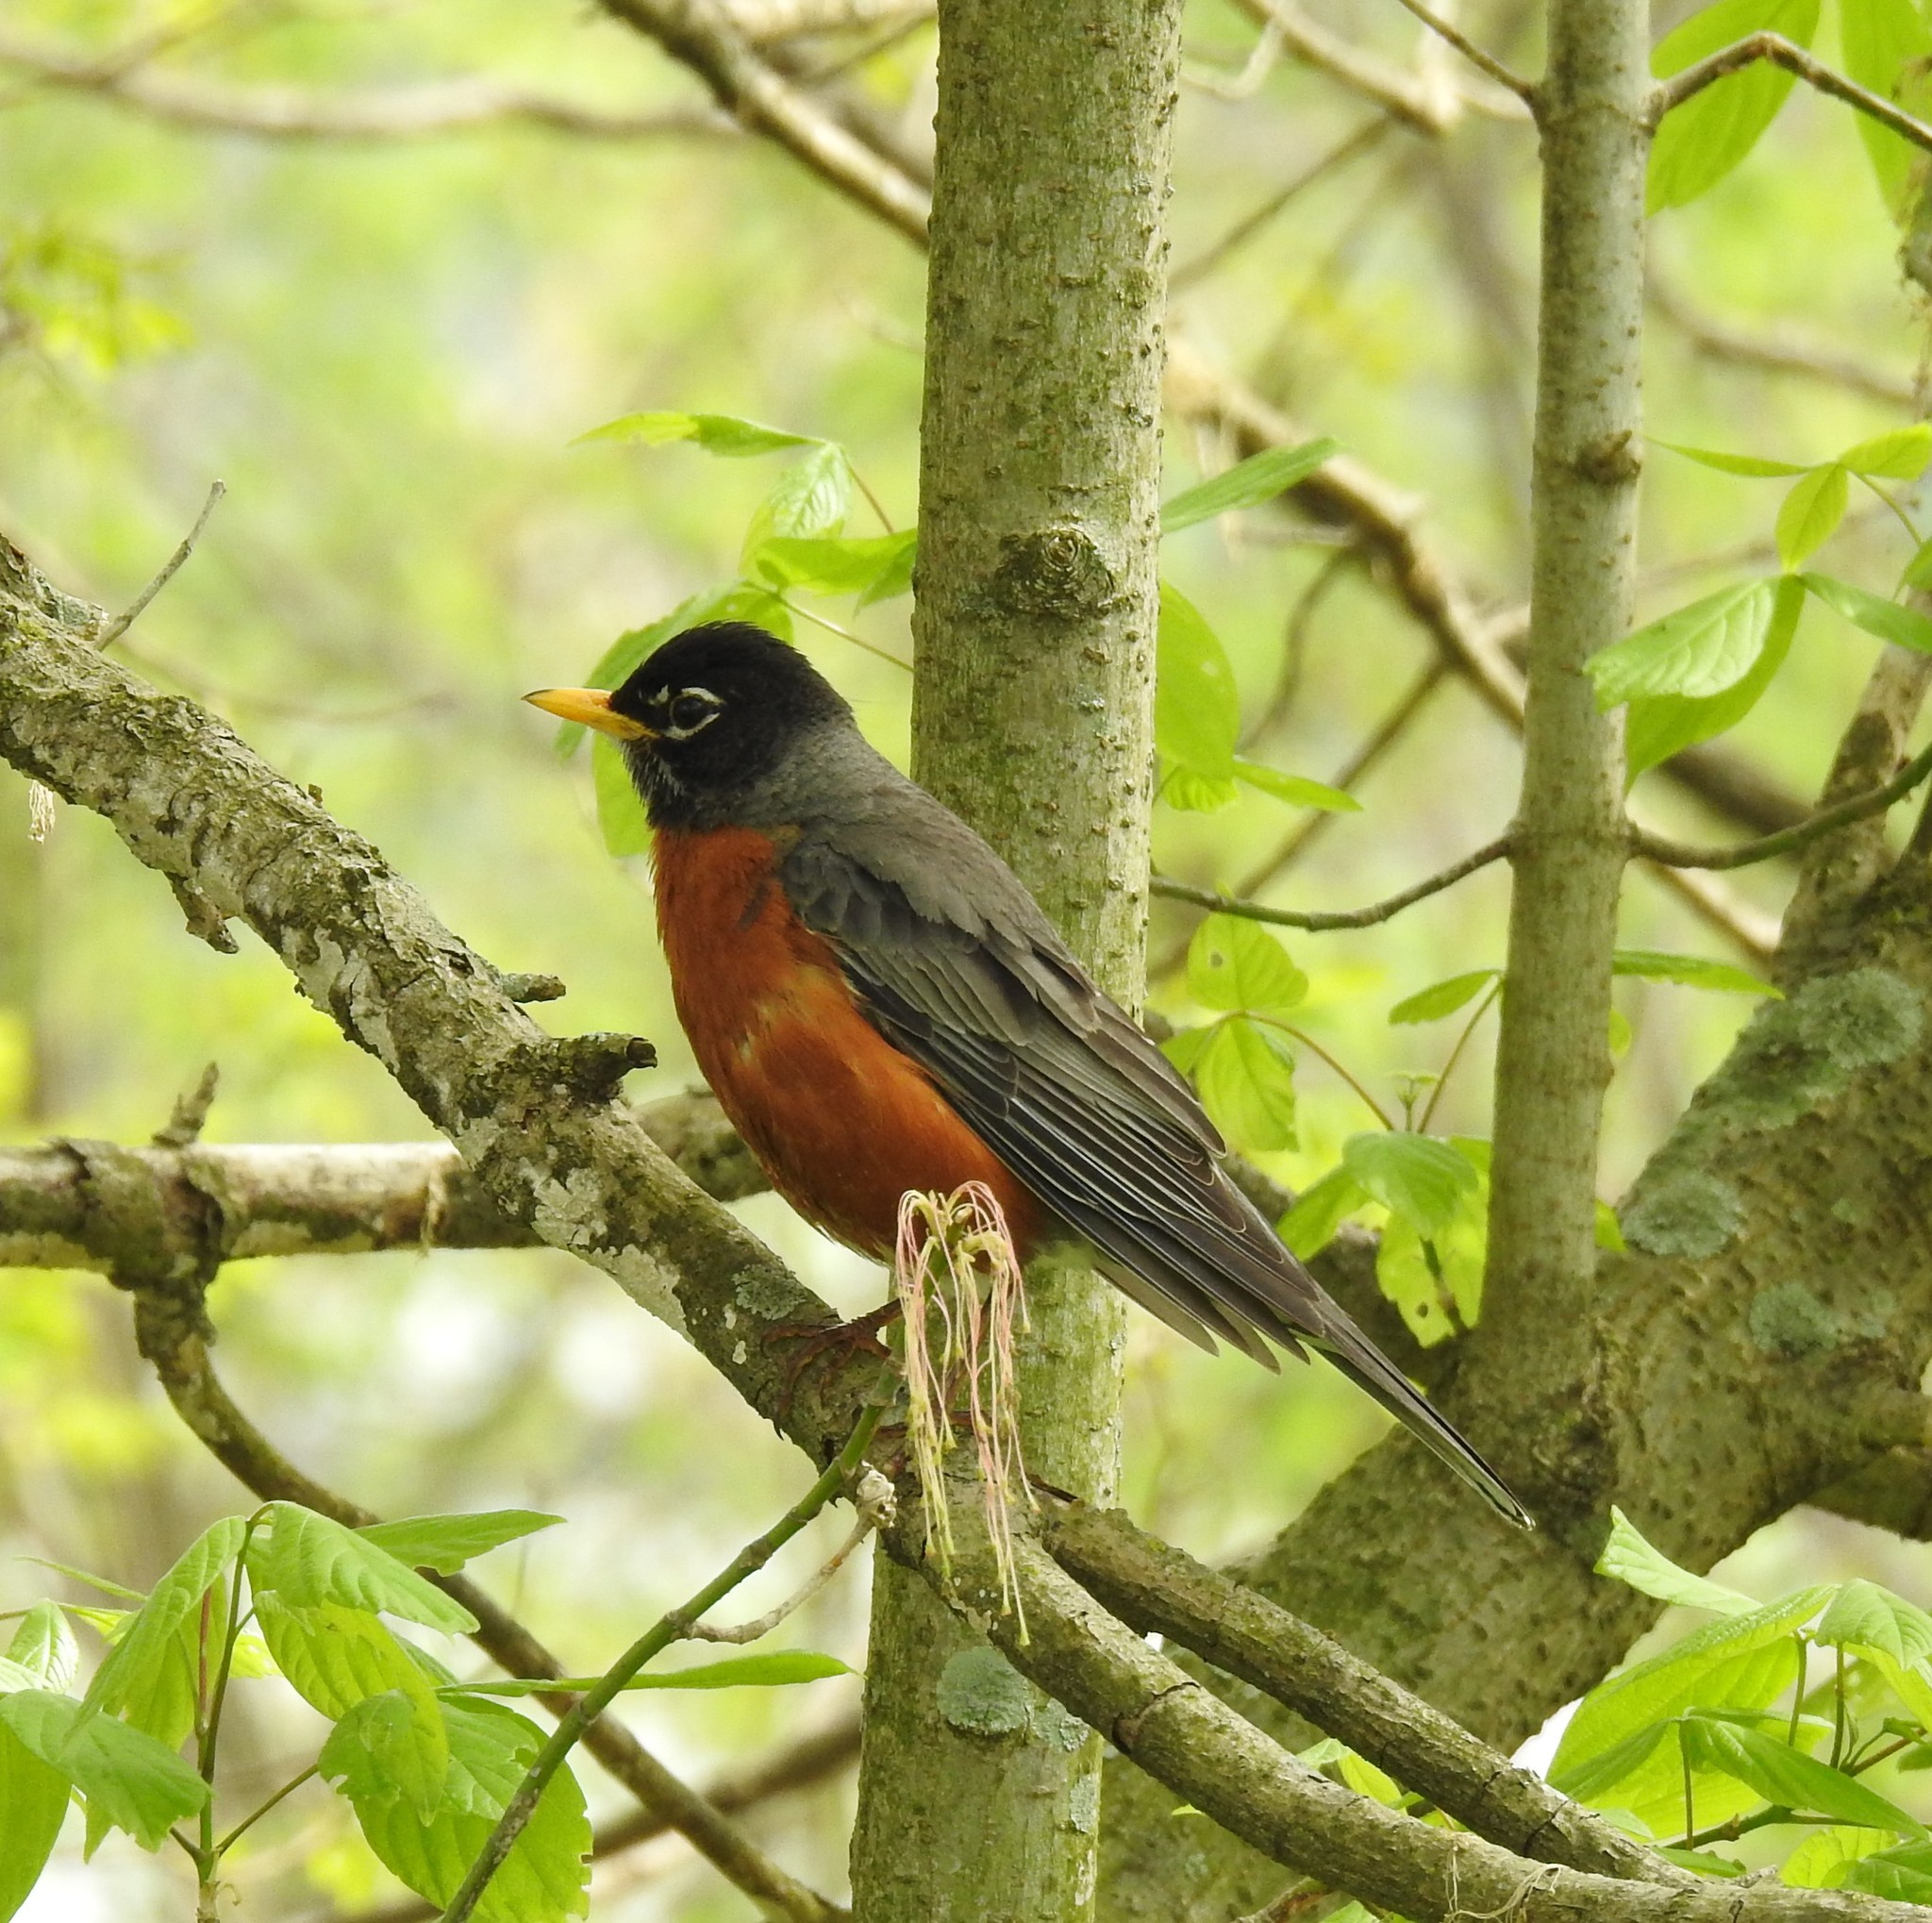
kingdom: Animalia
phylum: Chordata
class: Aves
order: Passeriformes
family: Turdidae
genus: Turdus
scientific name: Turdus migratorius
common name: American robin
